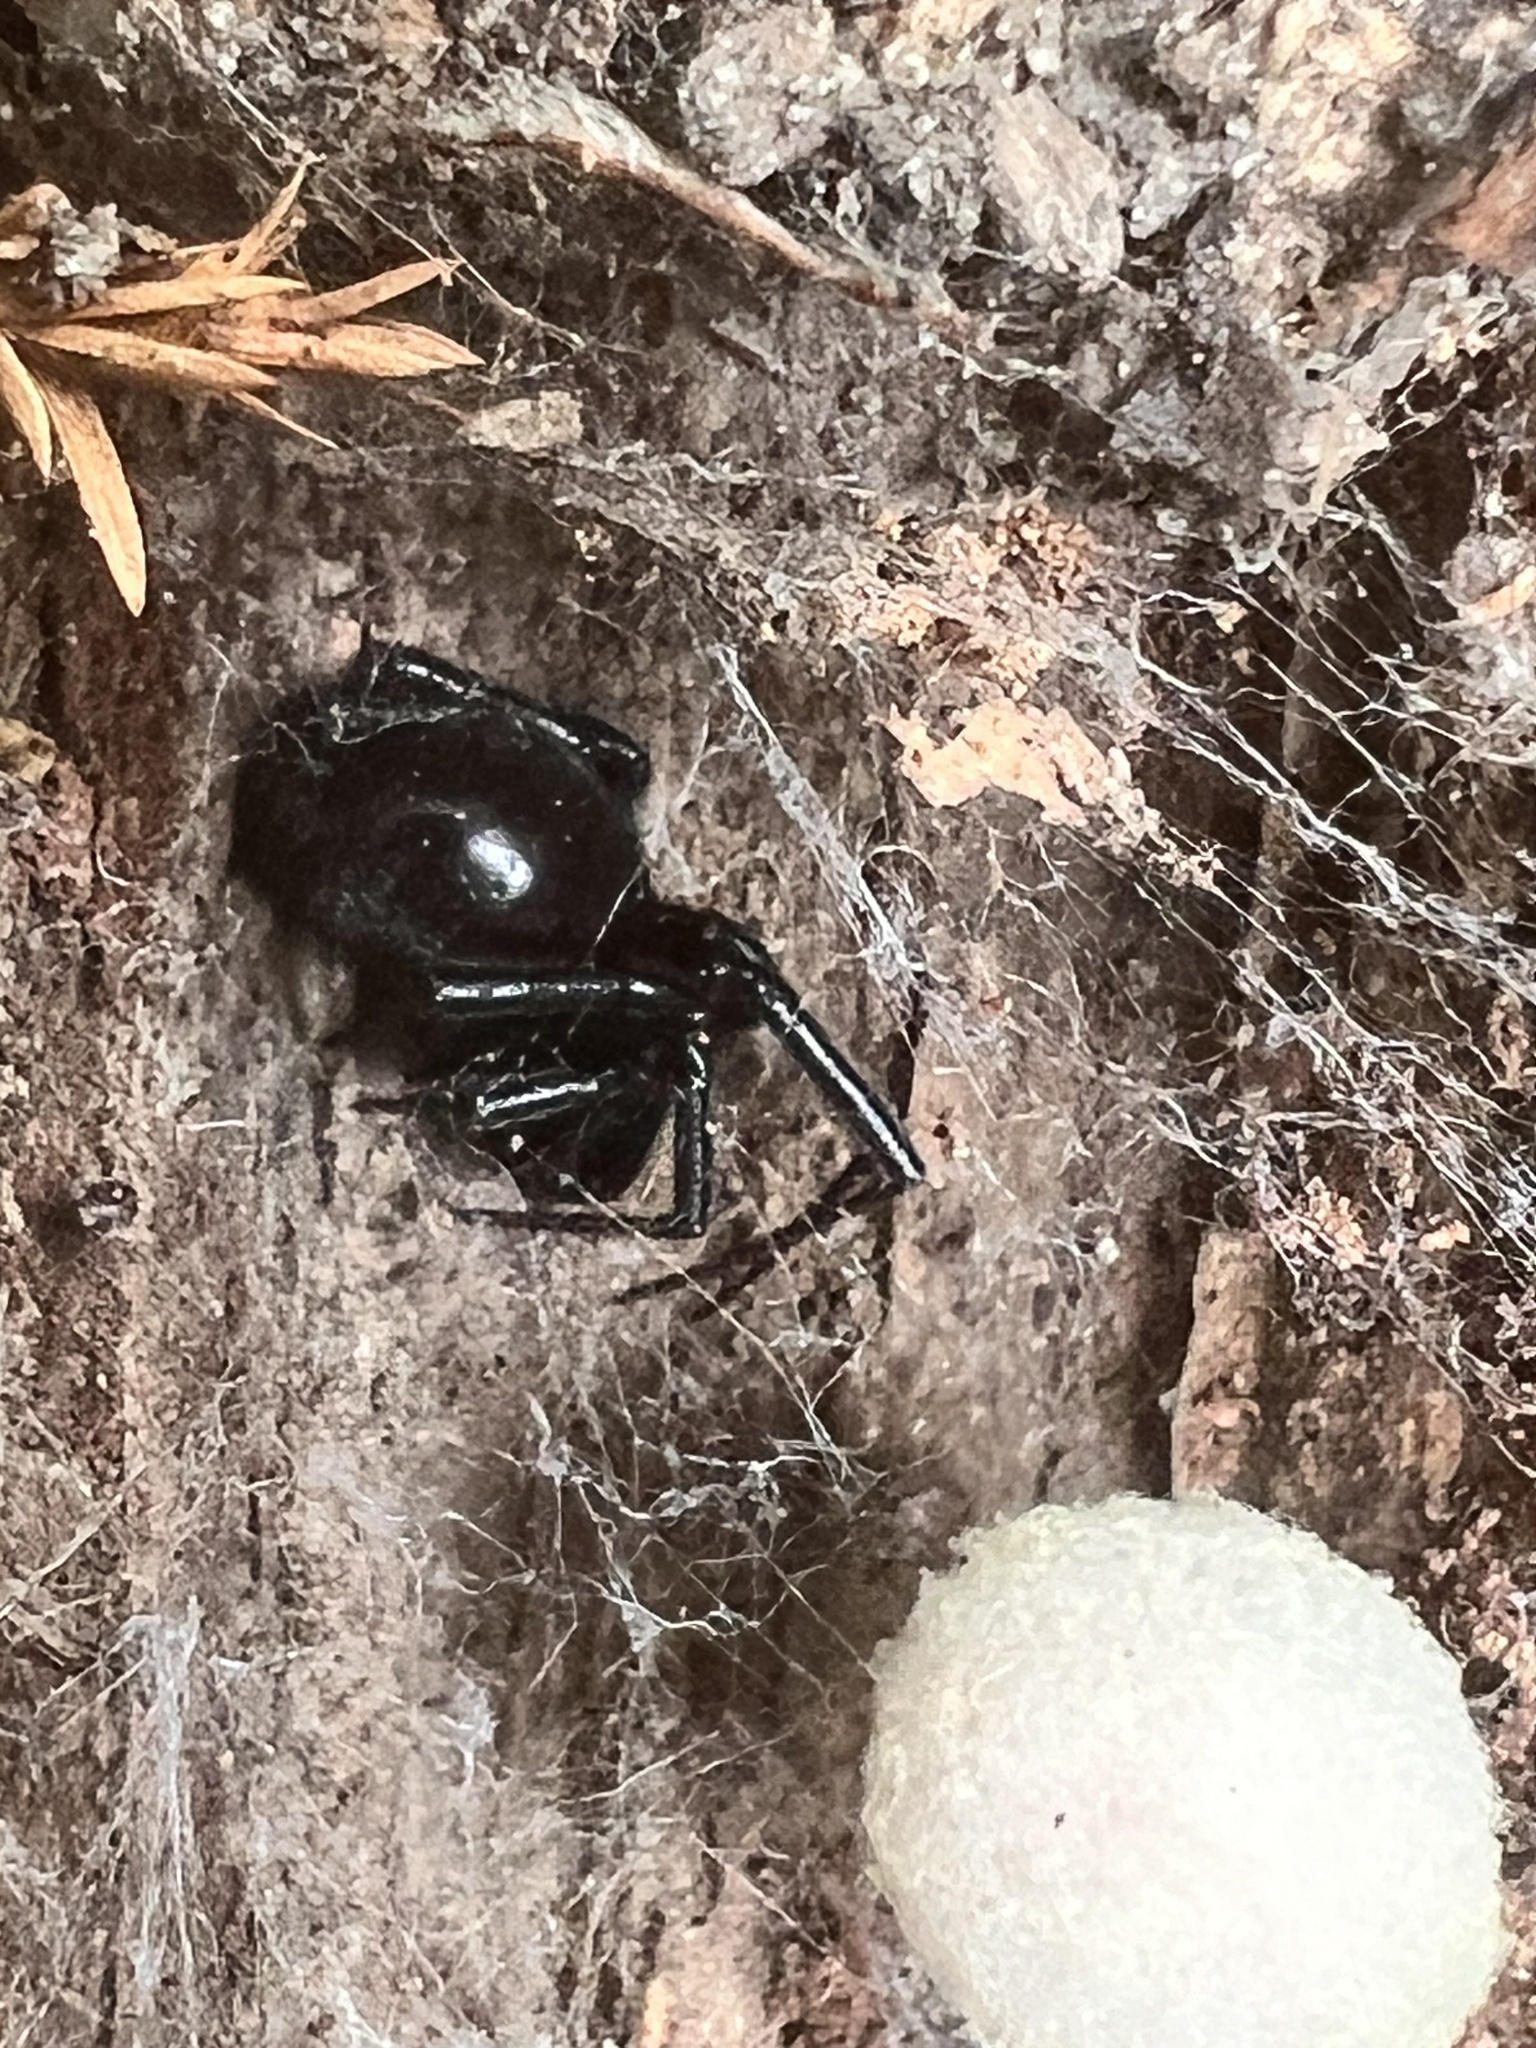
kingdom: Animalia
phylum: Arthropoda
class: Arachnida
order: Araneae
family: Theridiidae
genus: Steatoda
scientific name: Steatoda capensis
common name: Cobweb weaver
